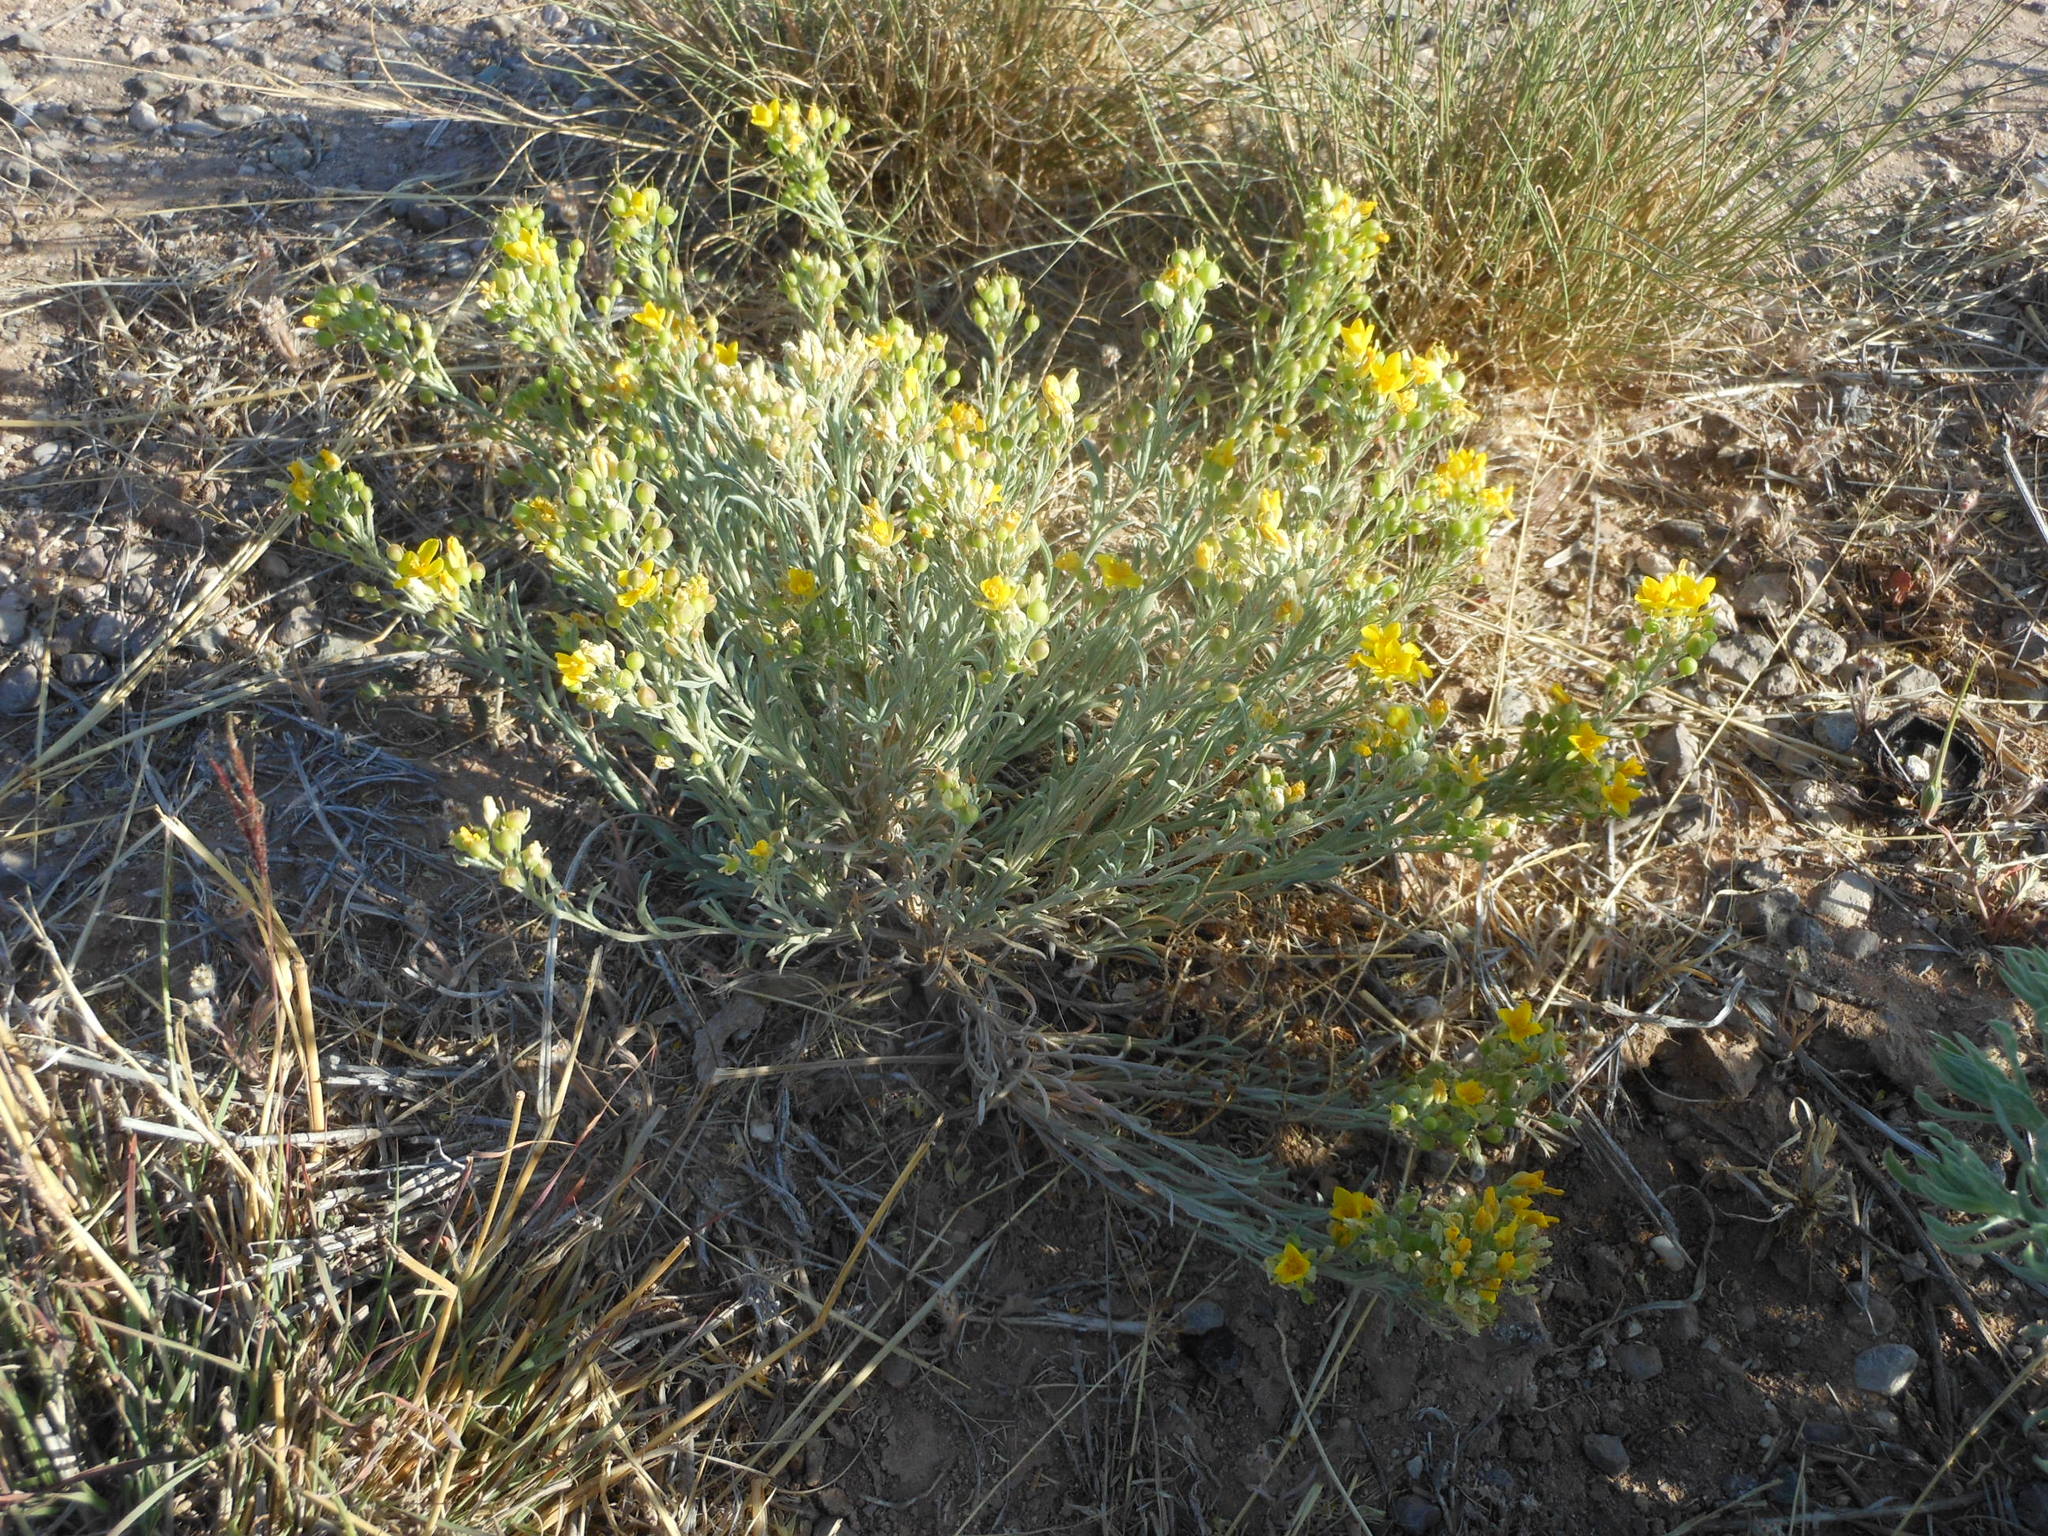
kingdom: Plantae
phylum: Tracheophyta
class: Magnoliopsida
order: Brassicales
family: Brassicaceae
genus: Physaria
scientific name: Physaria fendleri
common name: Fendler's bladderpod
